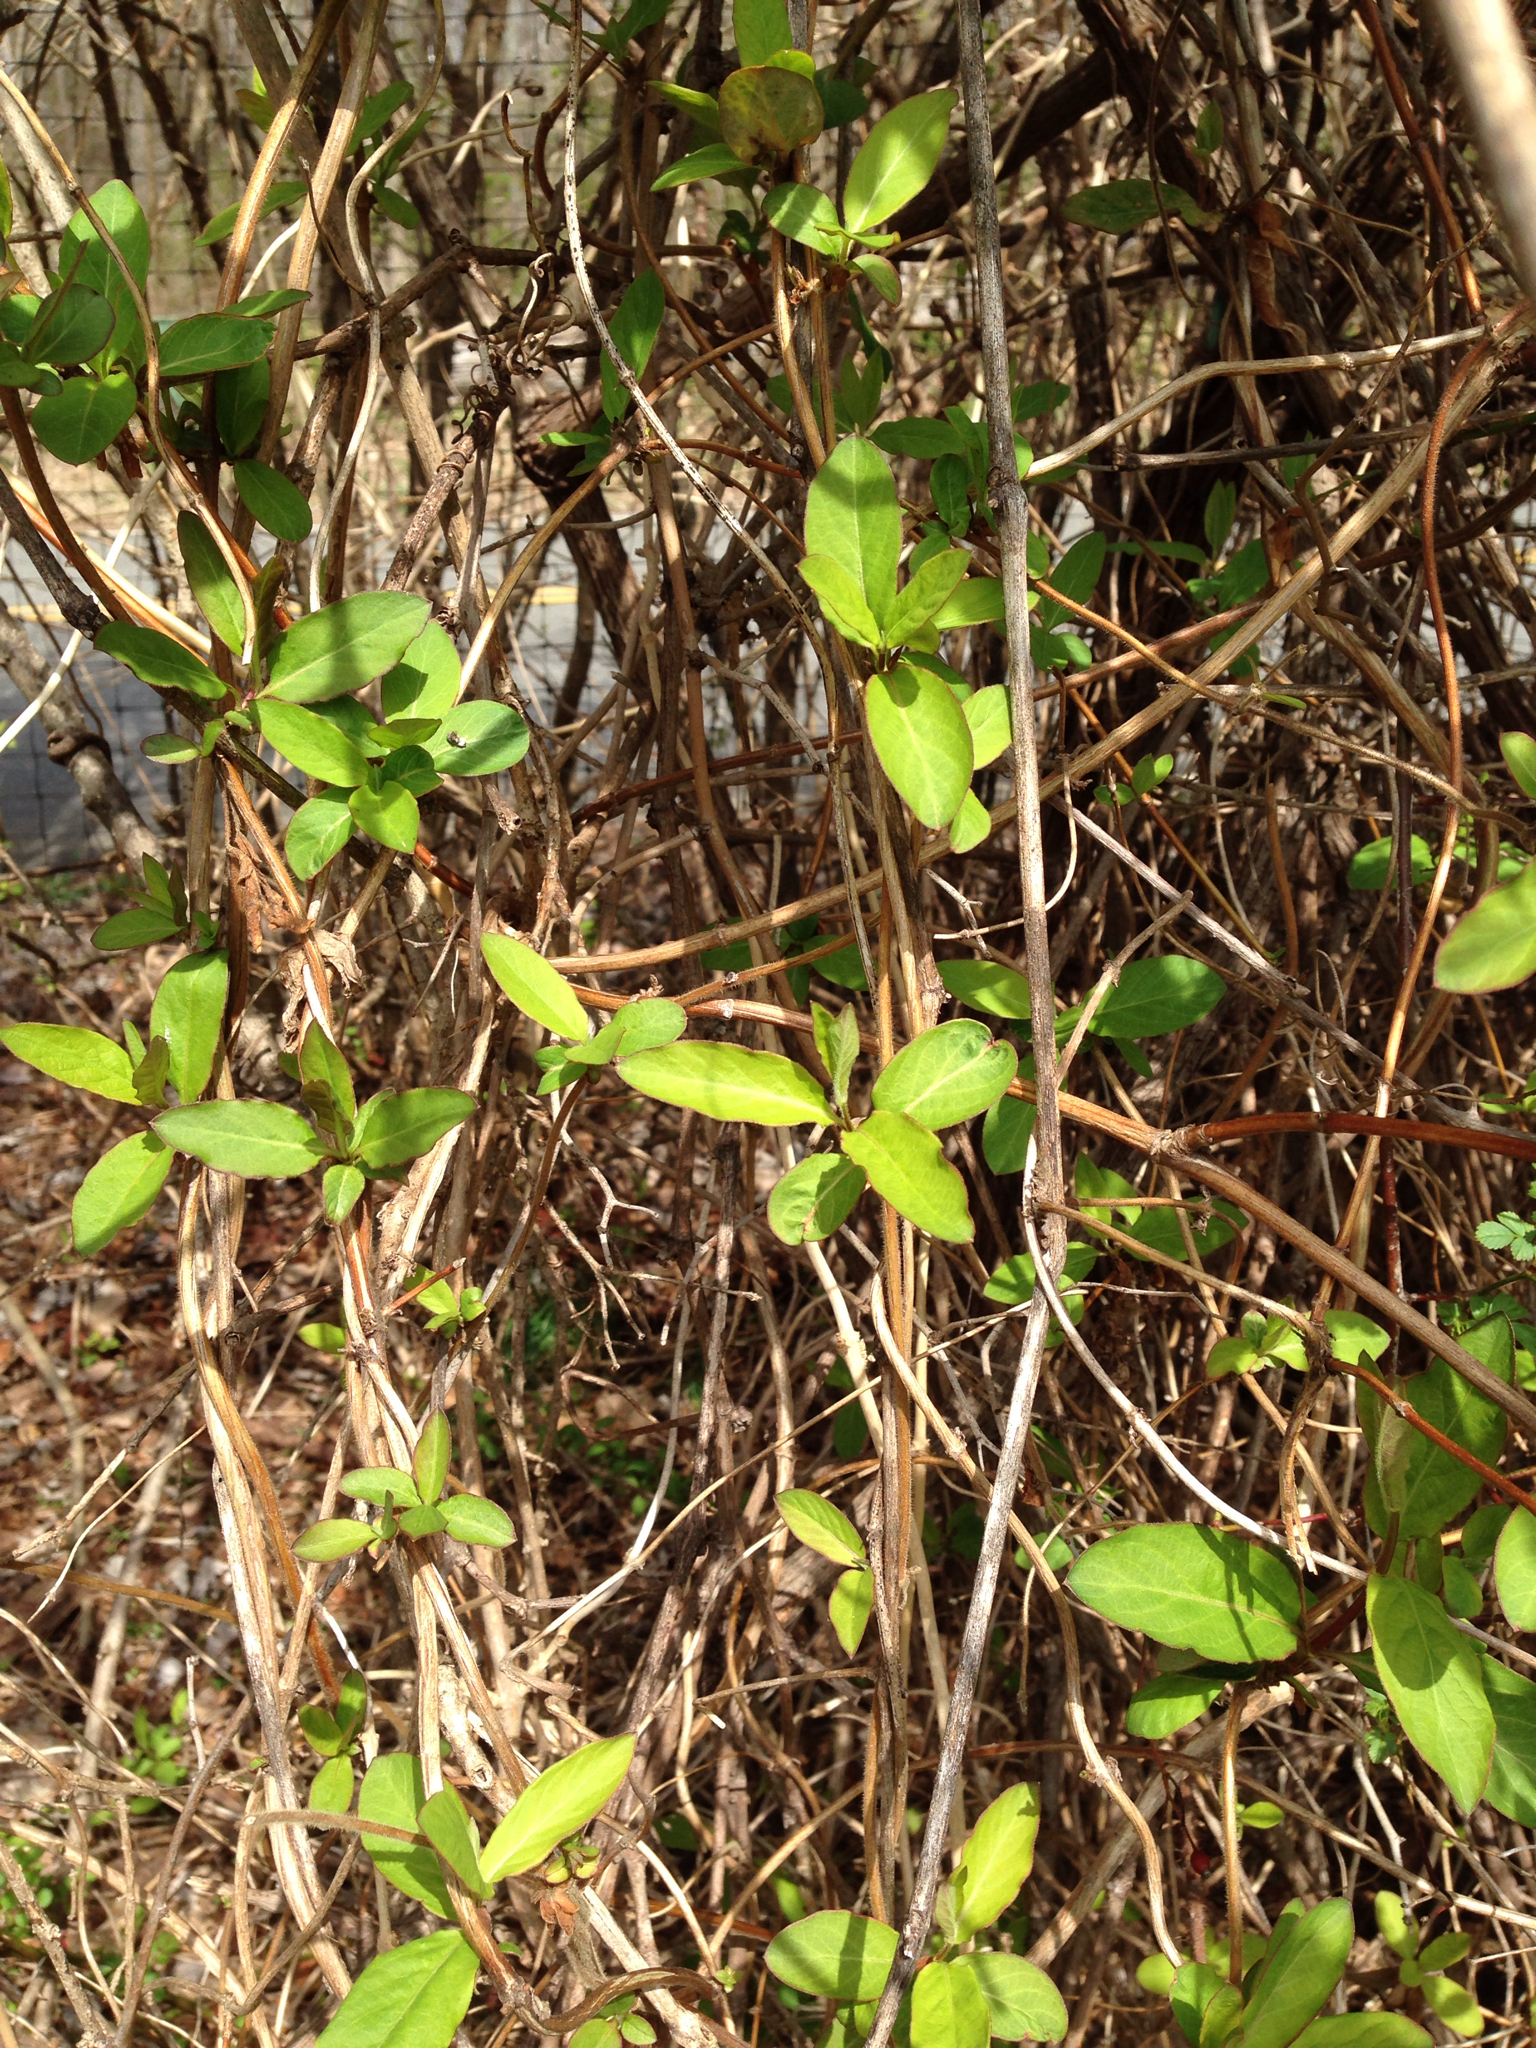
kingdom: Plantae
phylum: Tracheophyta
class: Magnoliopsida
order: Dipsacales
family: Caprifoliaceae
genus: Lonicera
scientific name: Lonicera japonica
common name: Japanese honeysuckle
